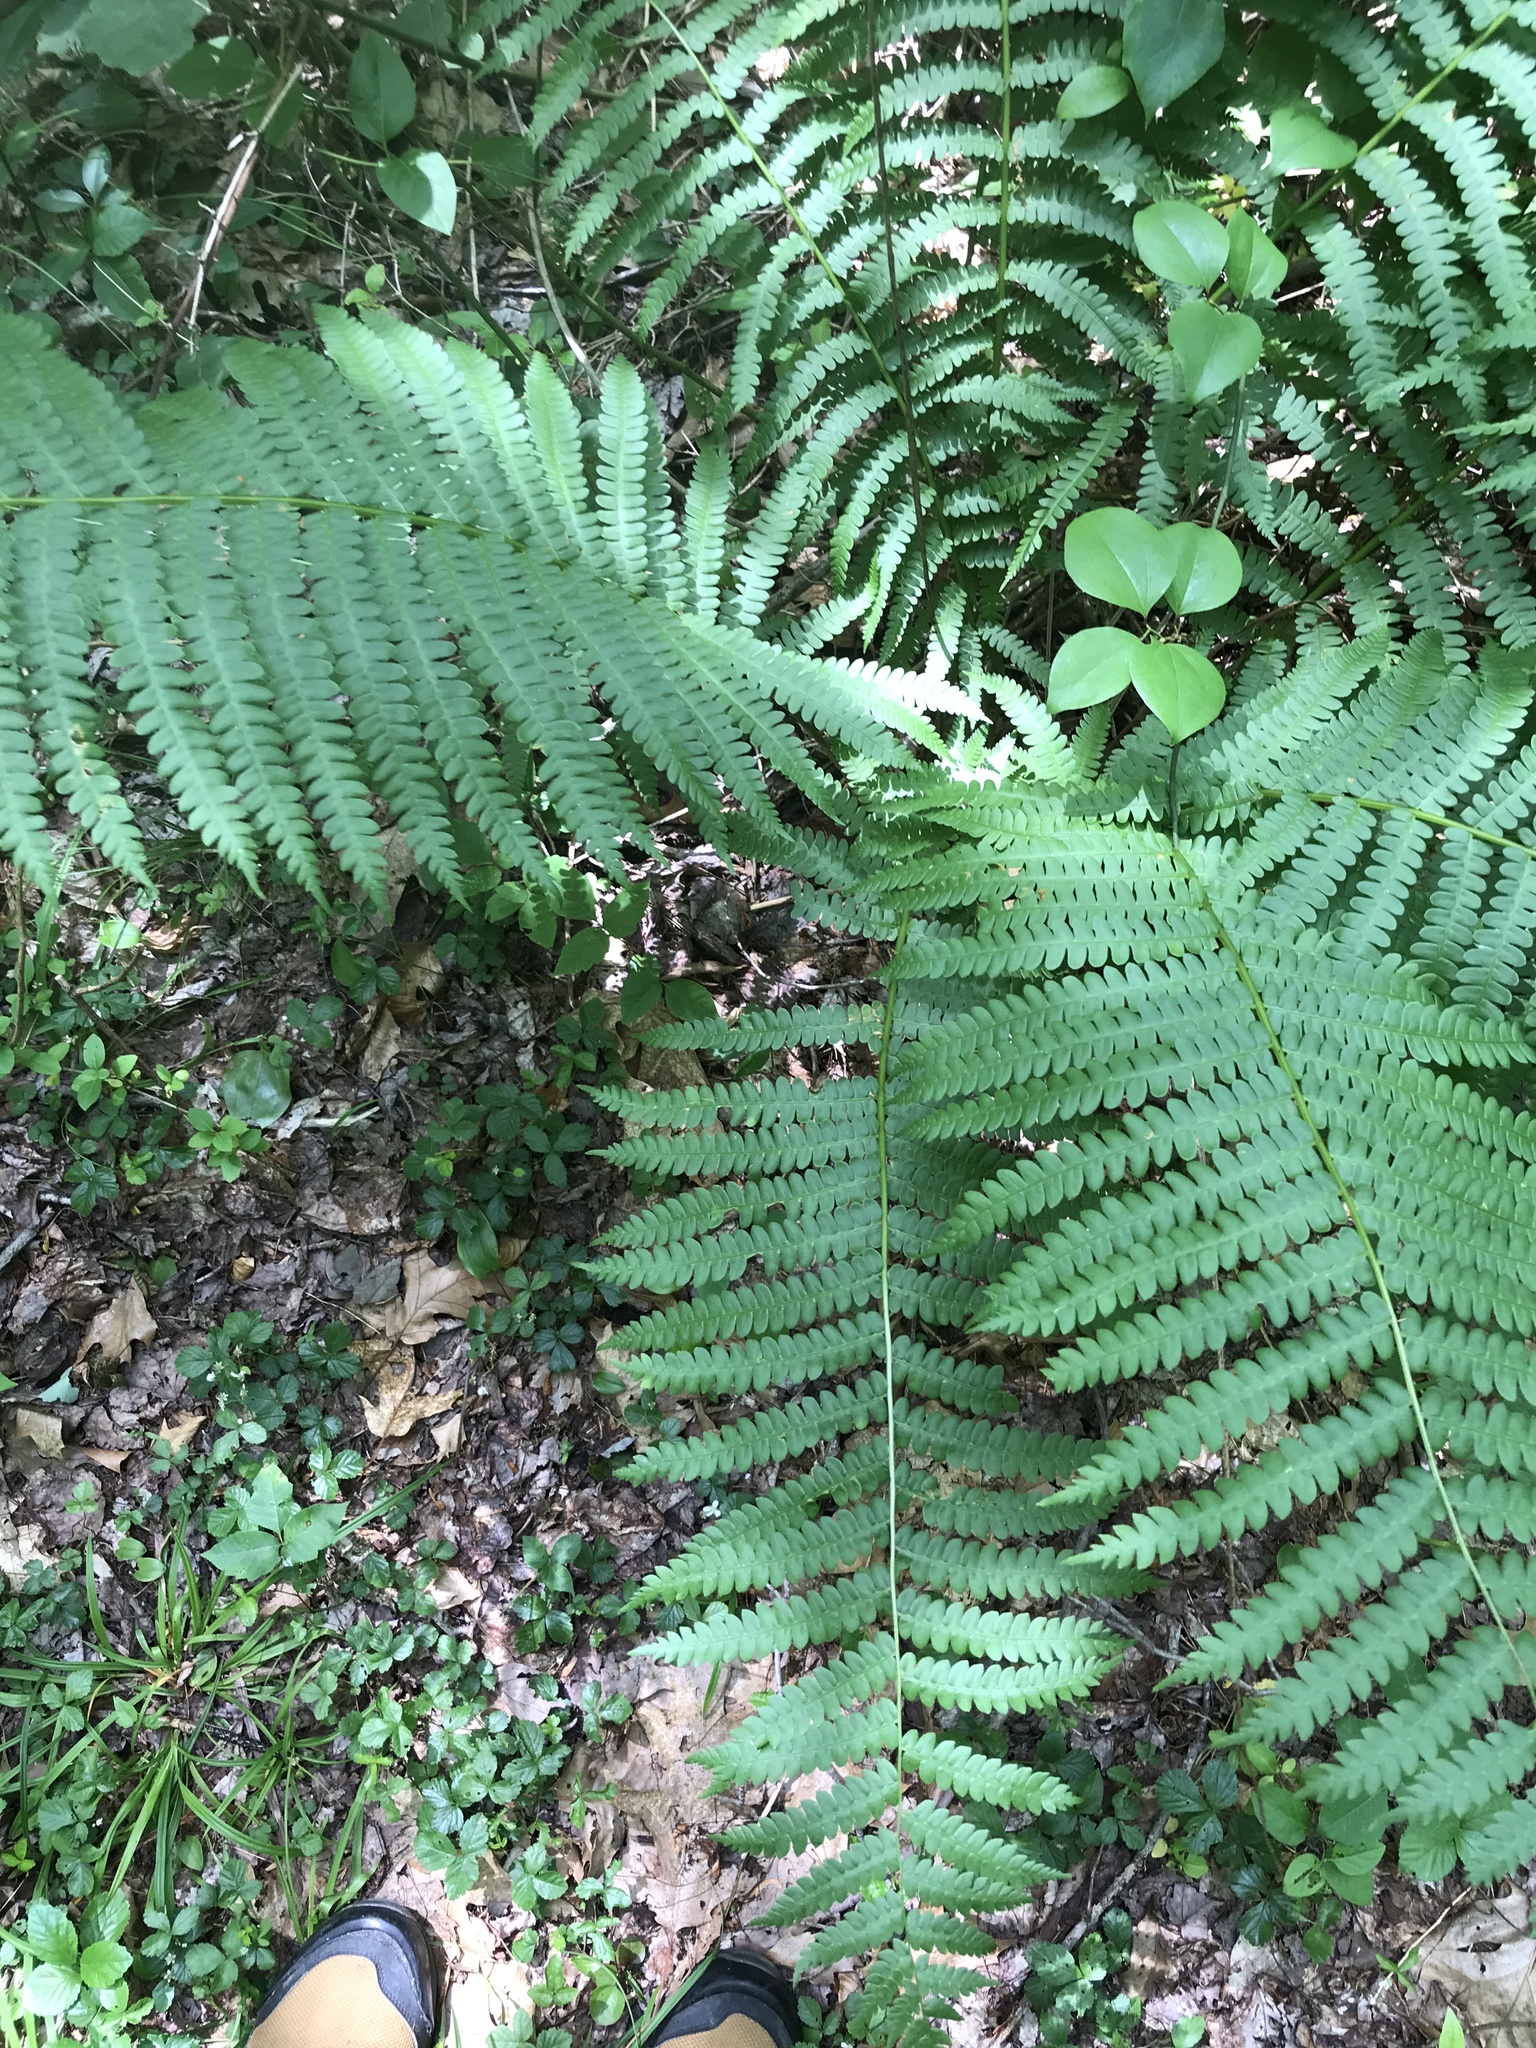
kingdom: Plantae
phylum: Tracheophyta
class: Polypodiopsida
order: Osmundales
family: Osmundaceae
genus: Osmundastrum
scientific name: Osmundastrum cinnamomeum
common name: Cinnamon fern
